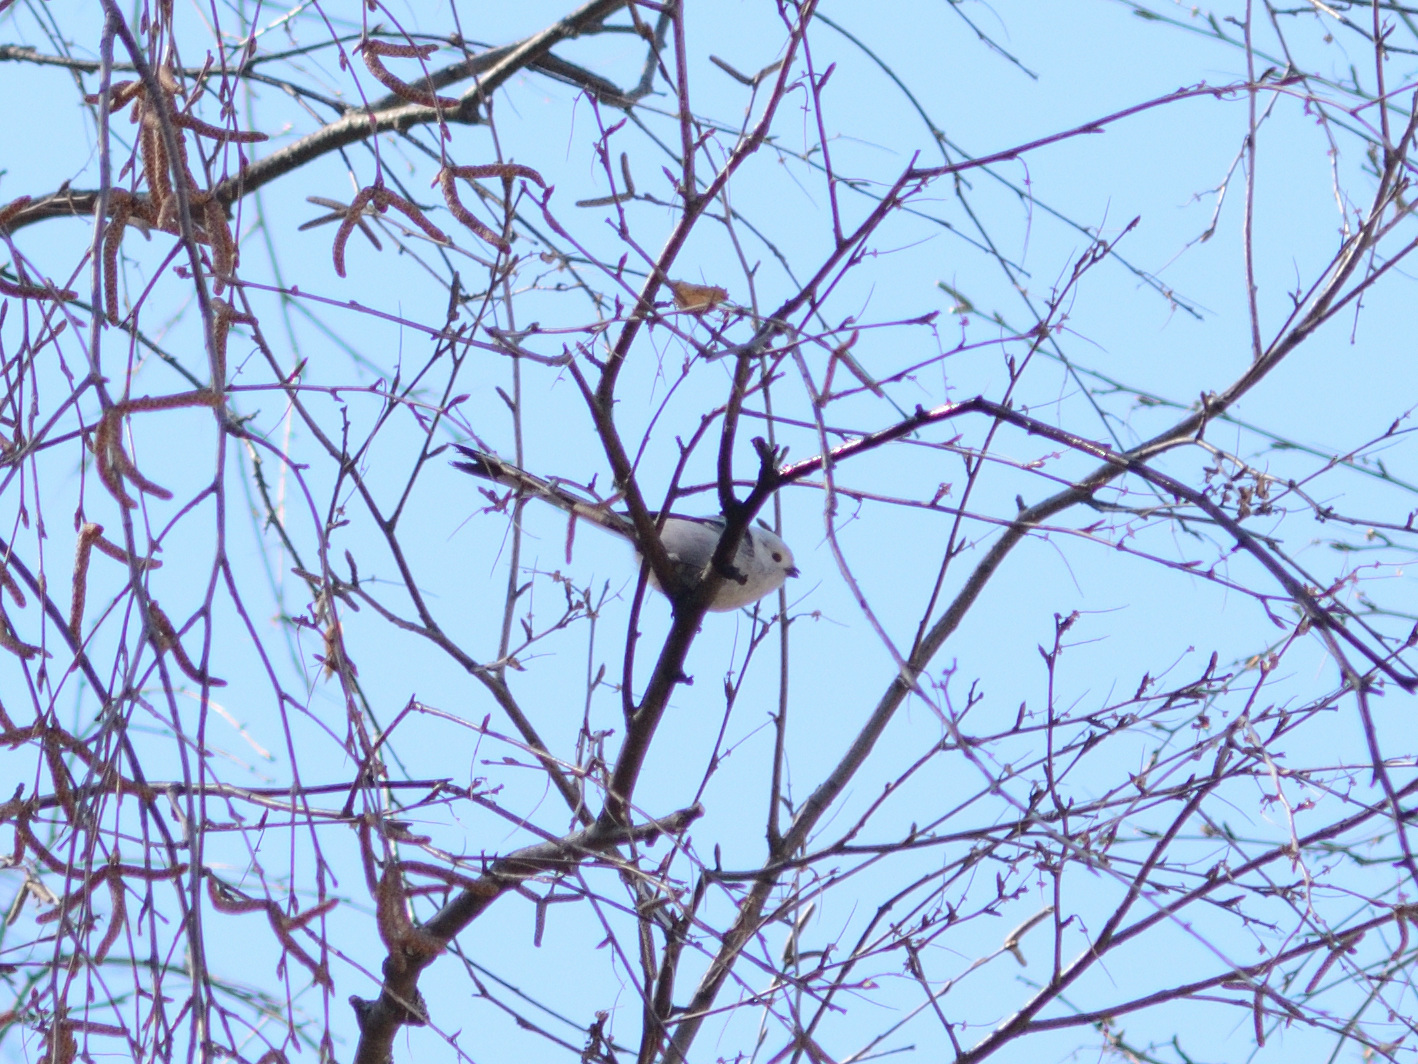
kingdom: Animalia
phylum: Chordata
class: Aves
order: Passeriformes
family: Aegithalidae
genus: Aegithalos
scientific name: Aegithalos caudatus
